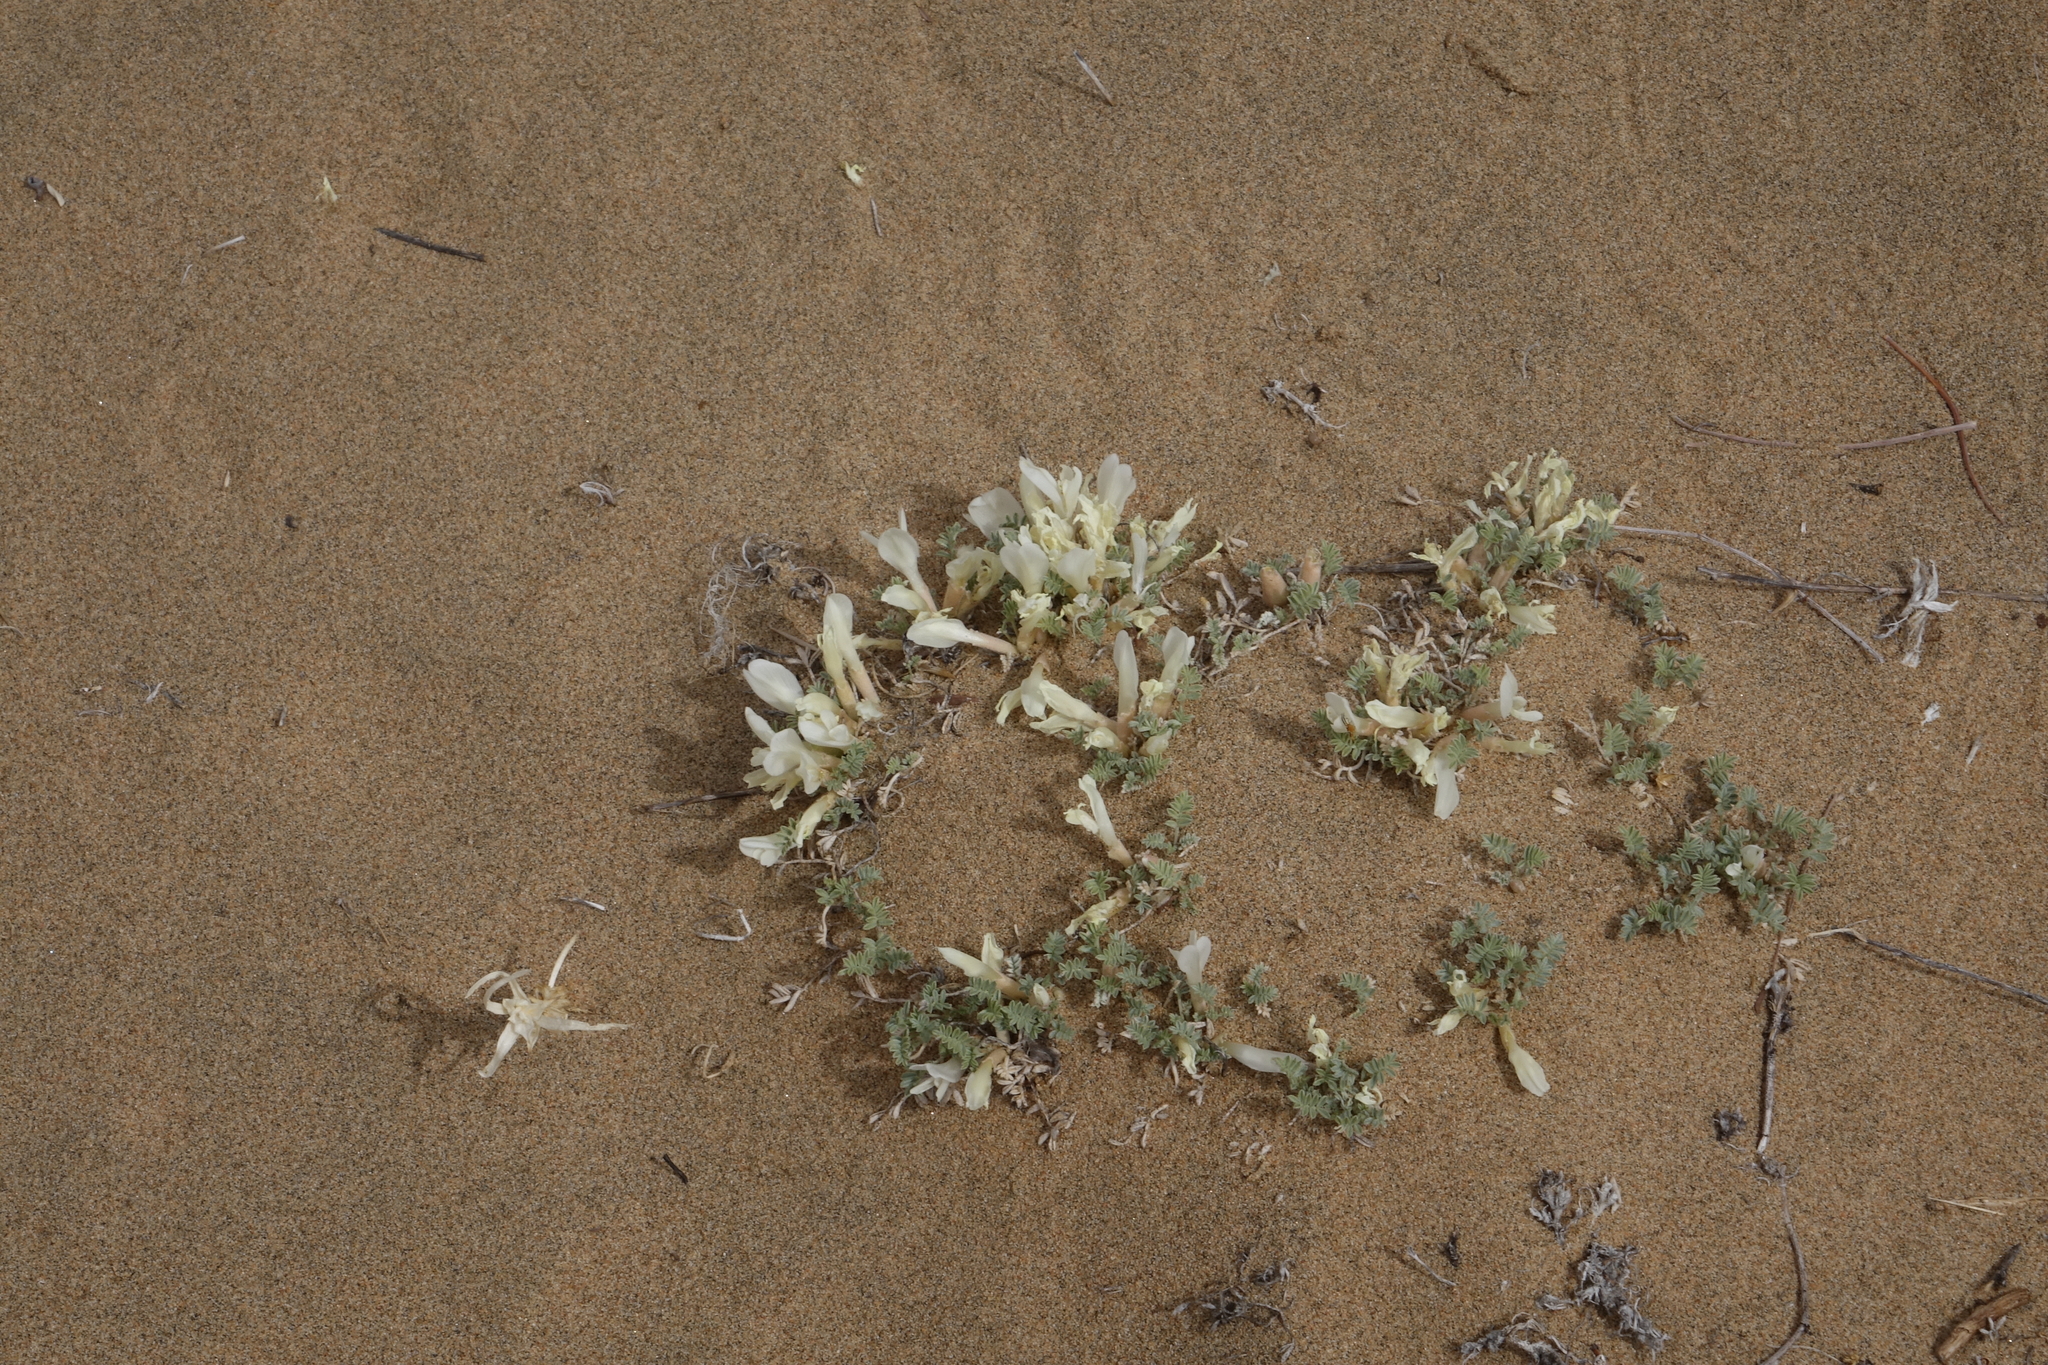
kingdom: Plantae
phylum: Tracheophyta
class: Magnoliopsida
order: Fabales
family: Fabaceae
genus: Astragalus
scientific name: Astragalus teskhemicus
